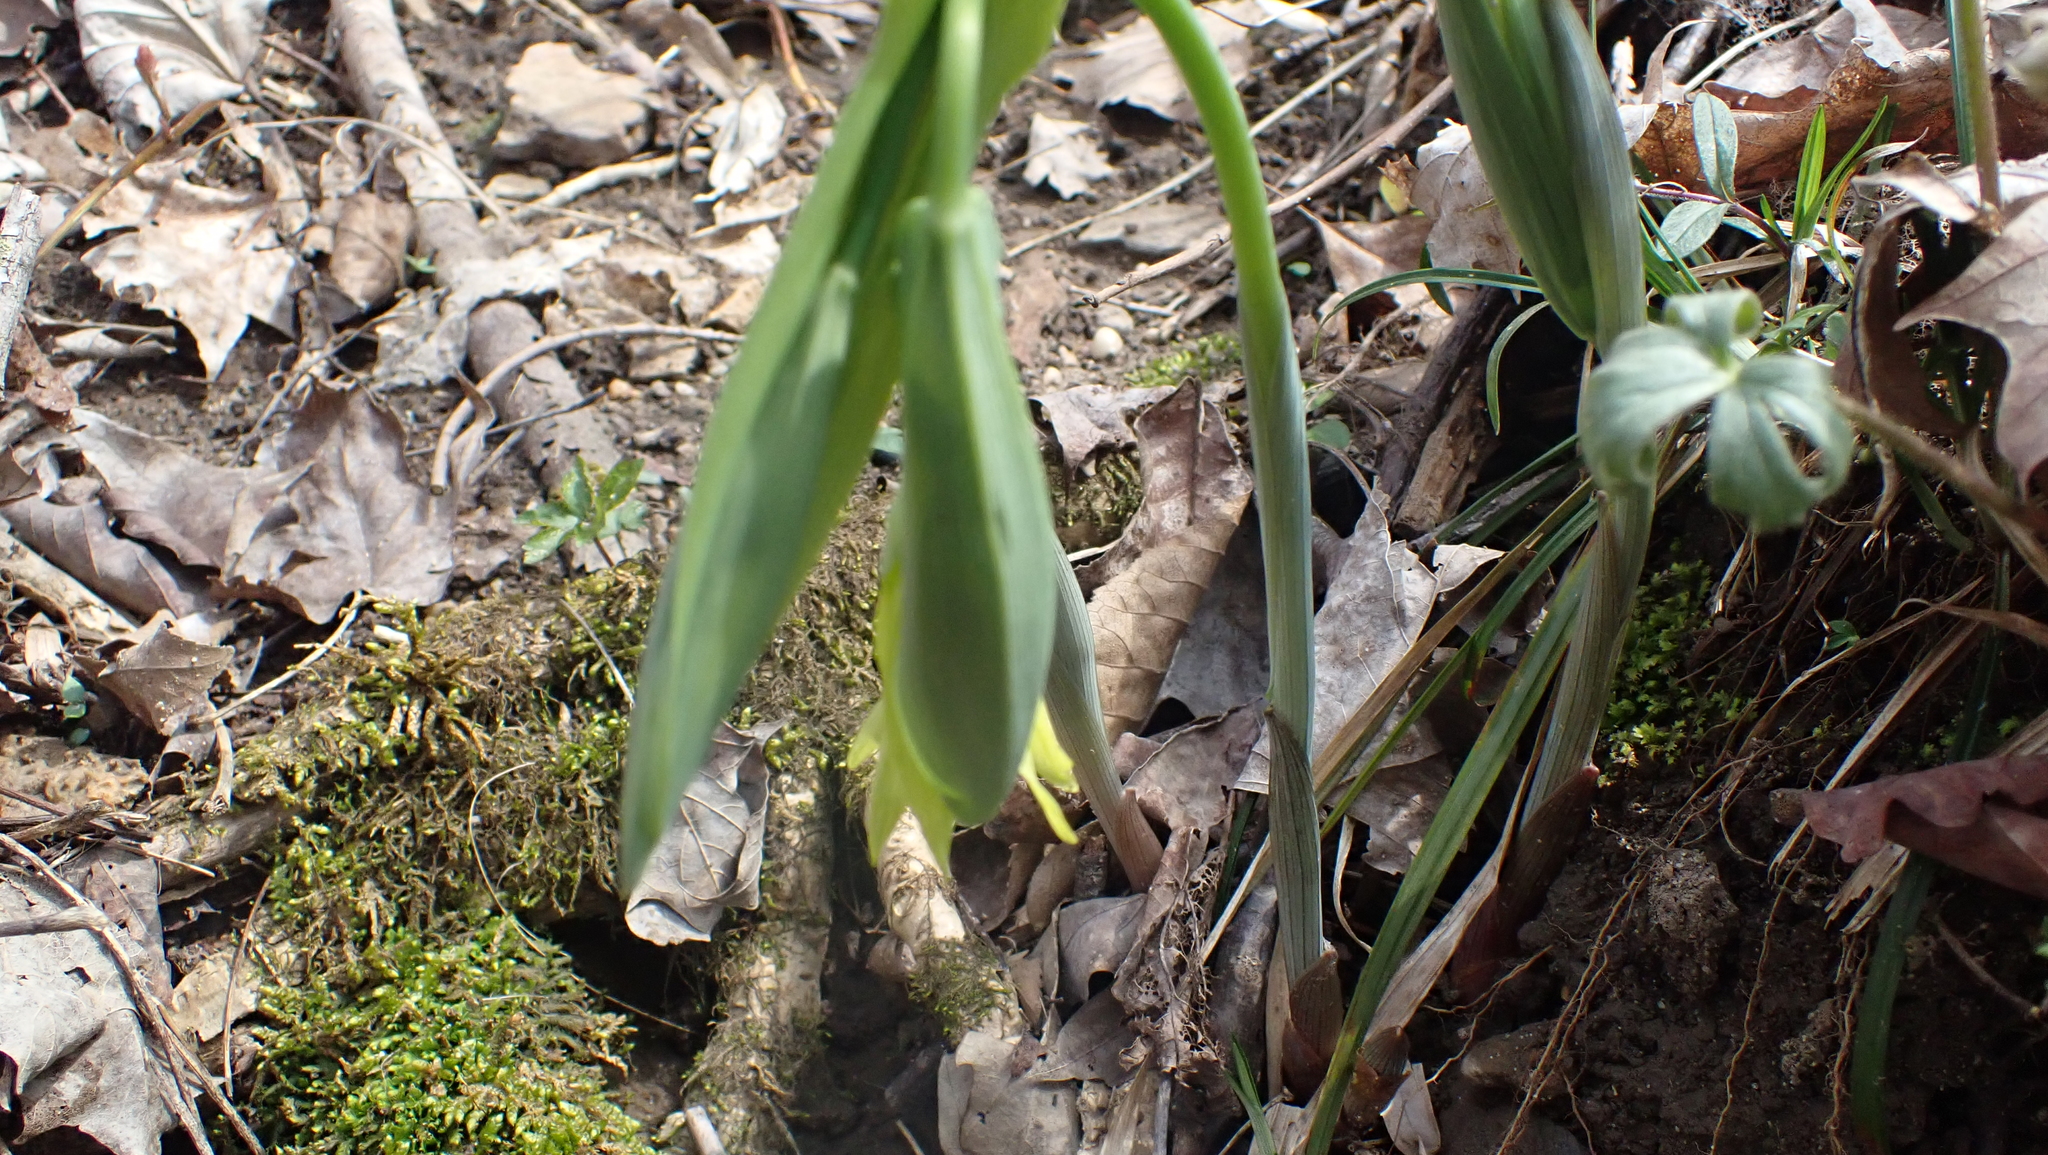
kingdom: Plantae
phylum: Tracheophyta
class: Liliopsida
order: Liliales
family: Colchicaceae
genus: Uvularia
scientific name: Uvularia grandiflora
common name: Bellwort
